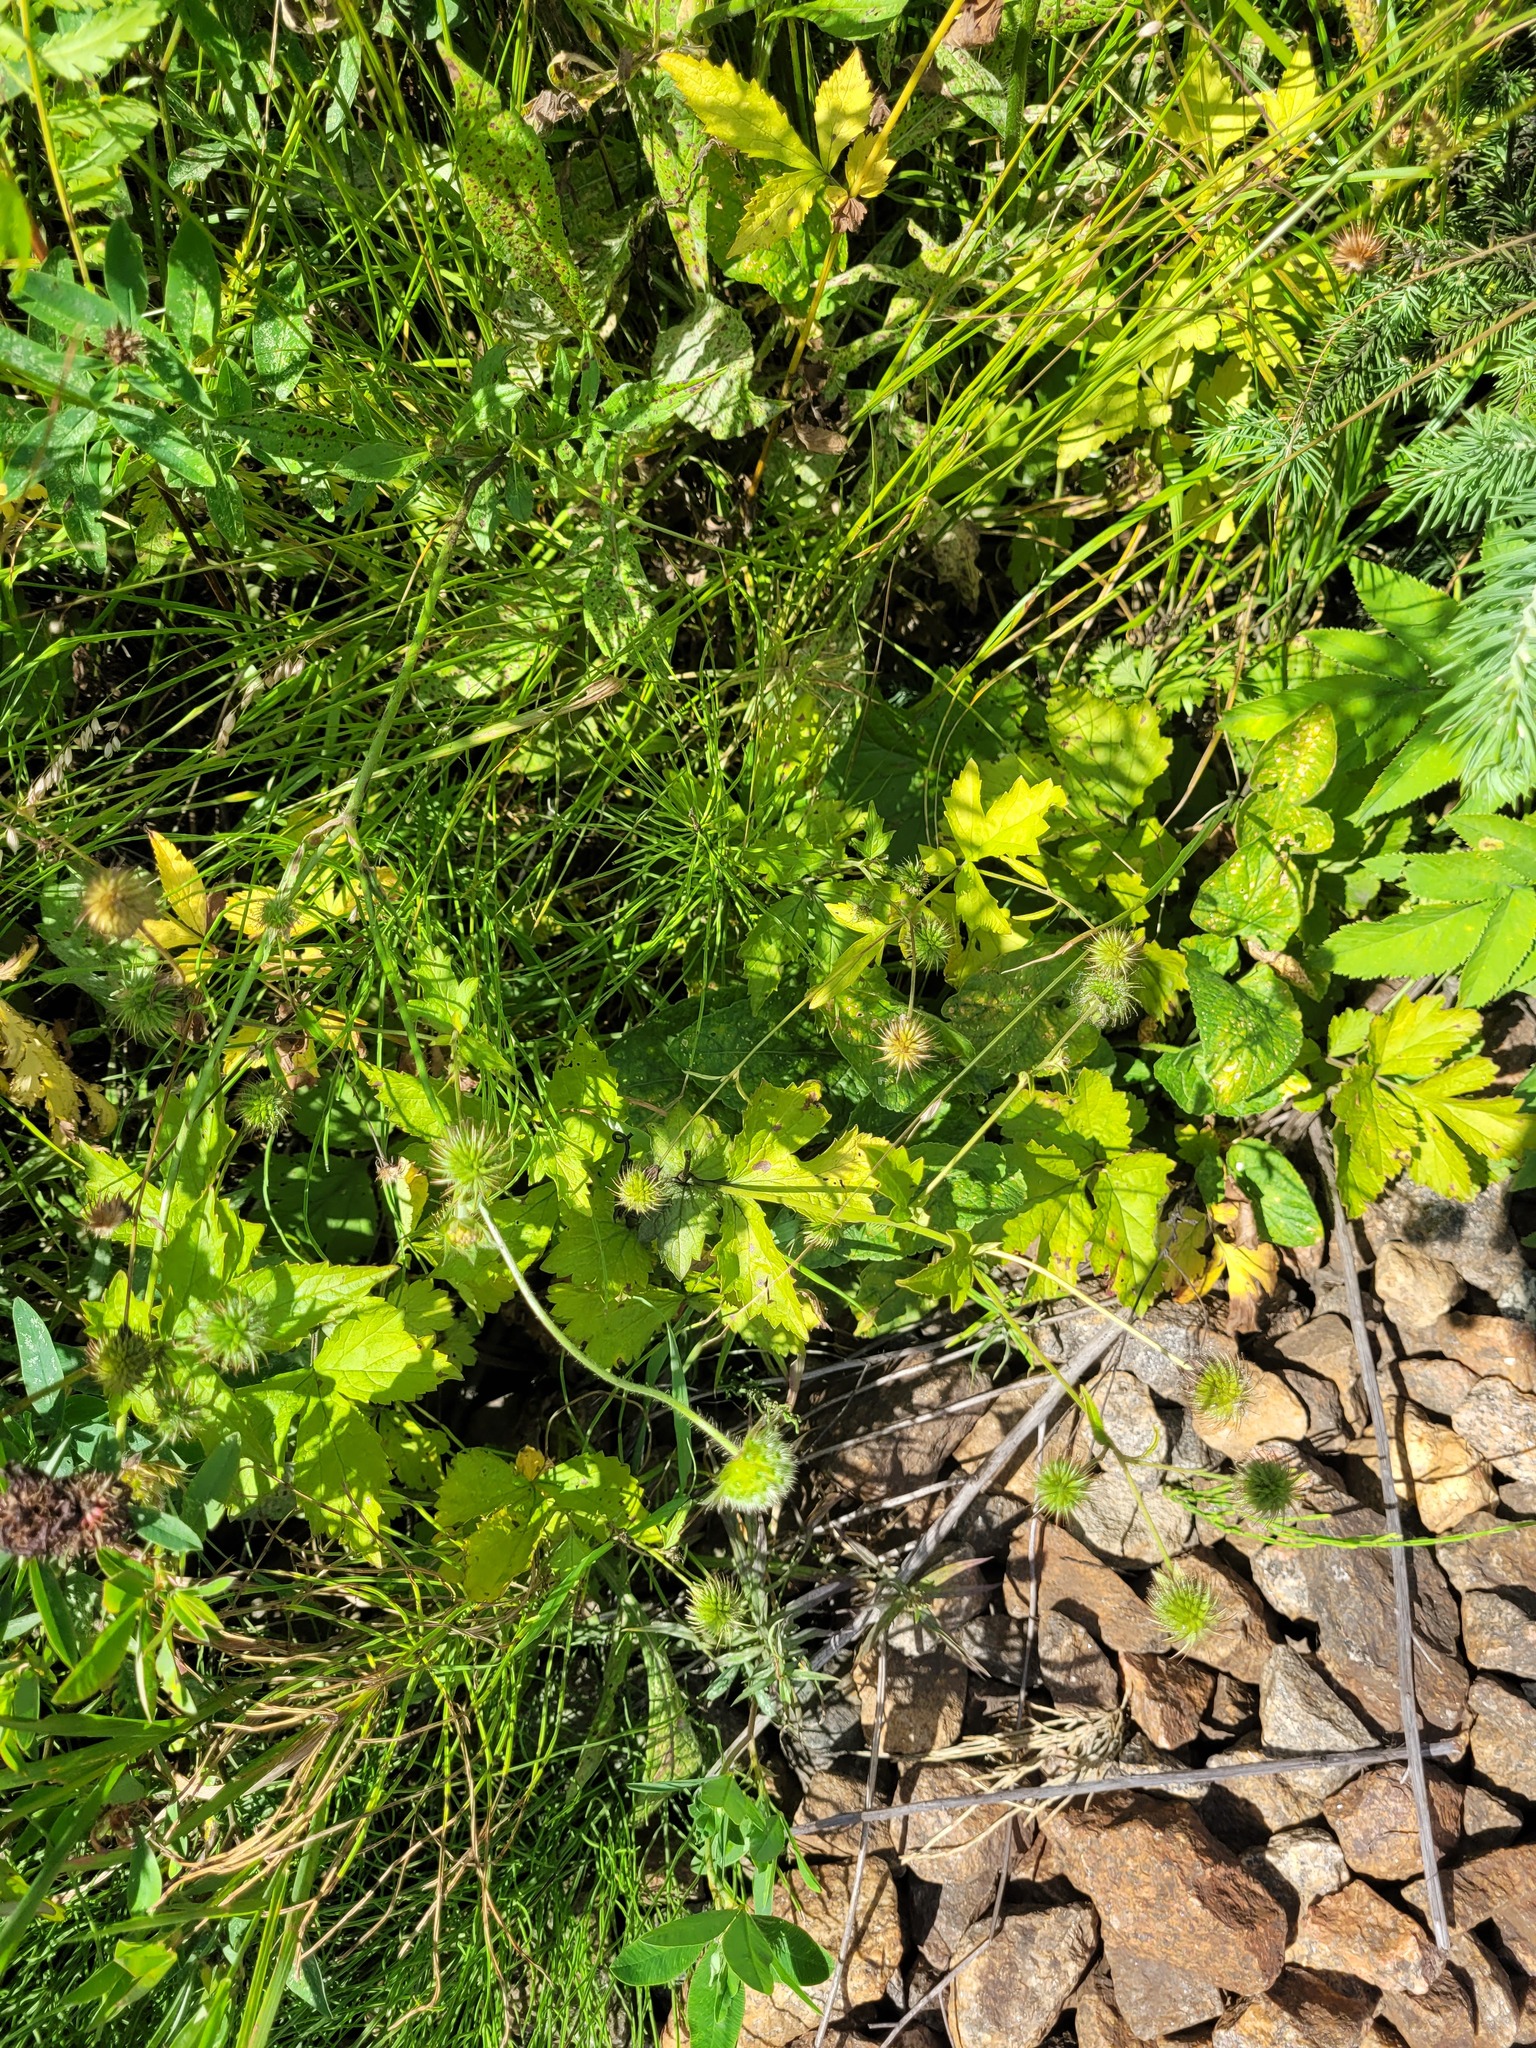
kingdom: Plantae
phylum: Tracheophyta
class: Magnoliopsida
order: Rosales
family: Rosaceae
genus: Geum
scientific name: Geum urbanum
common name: Wood avens
